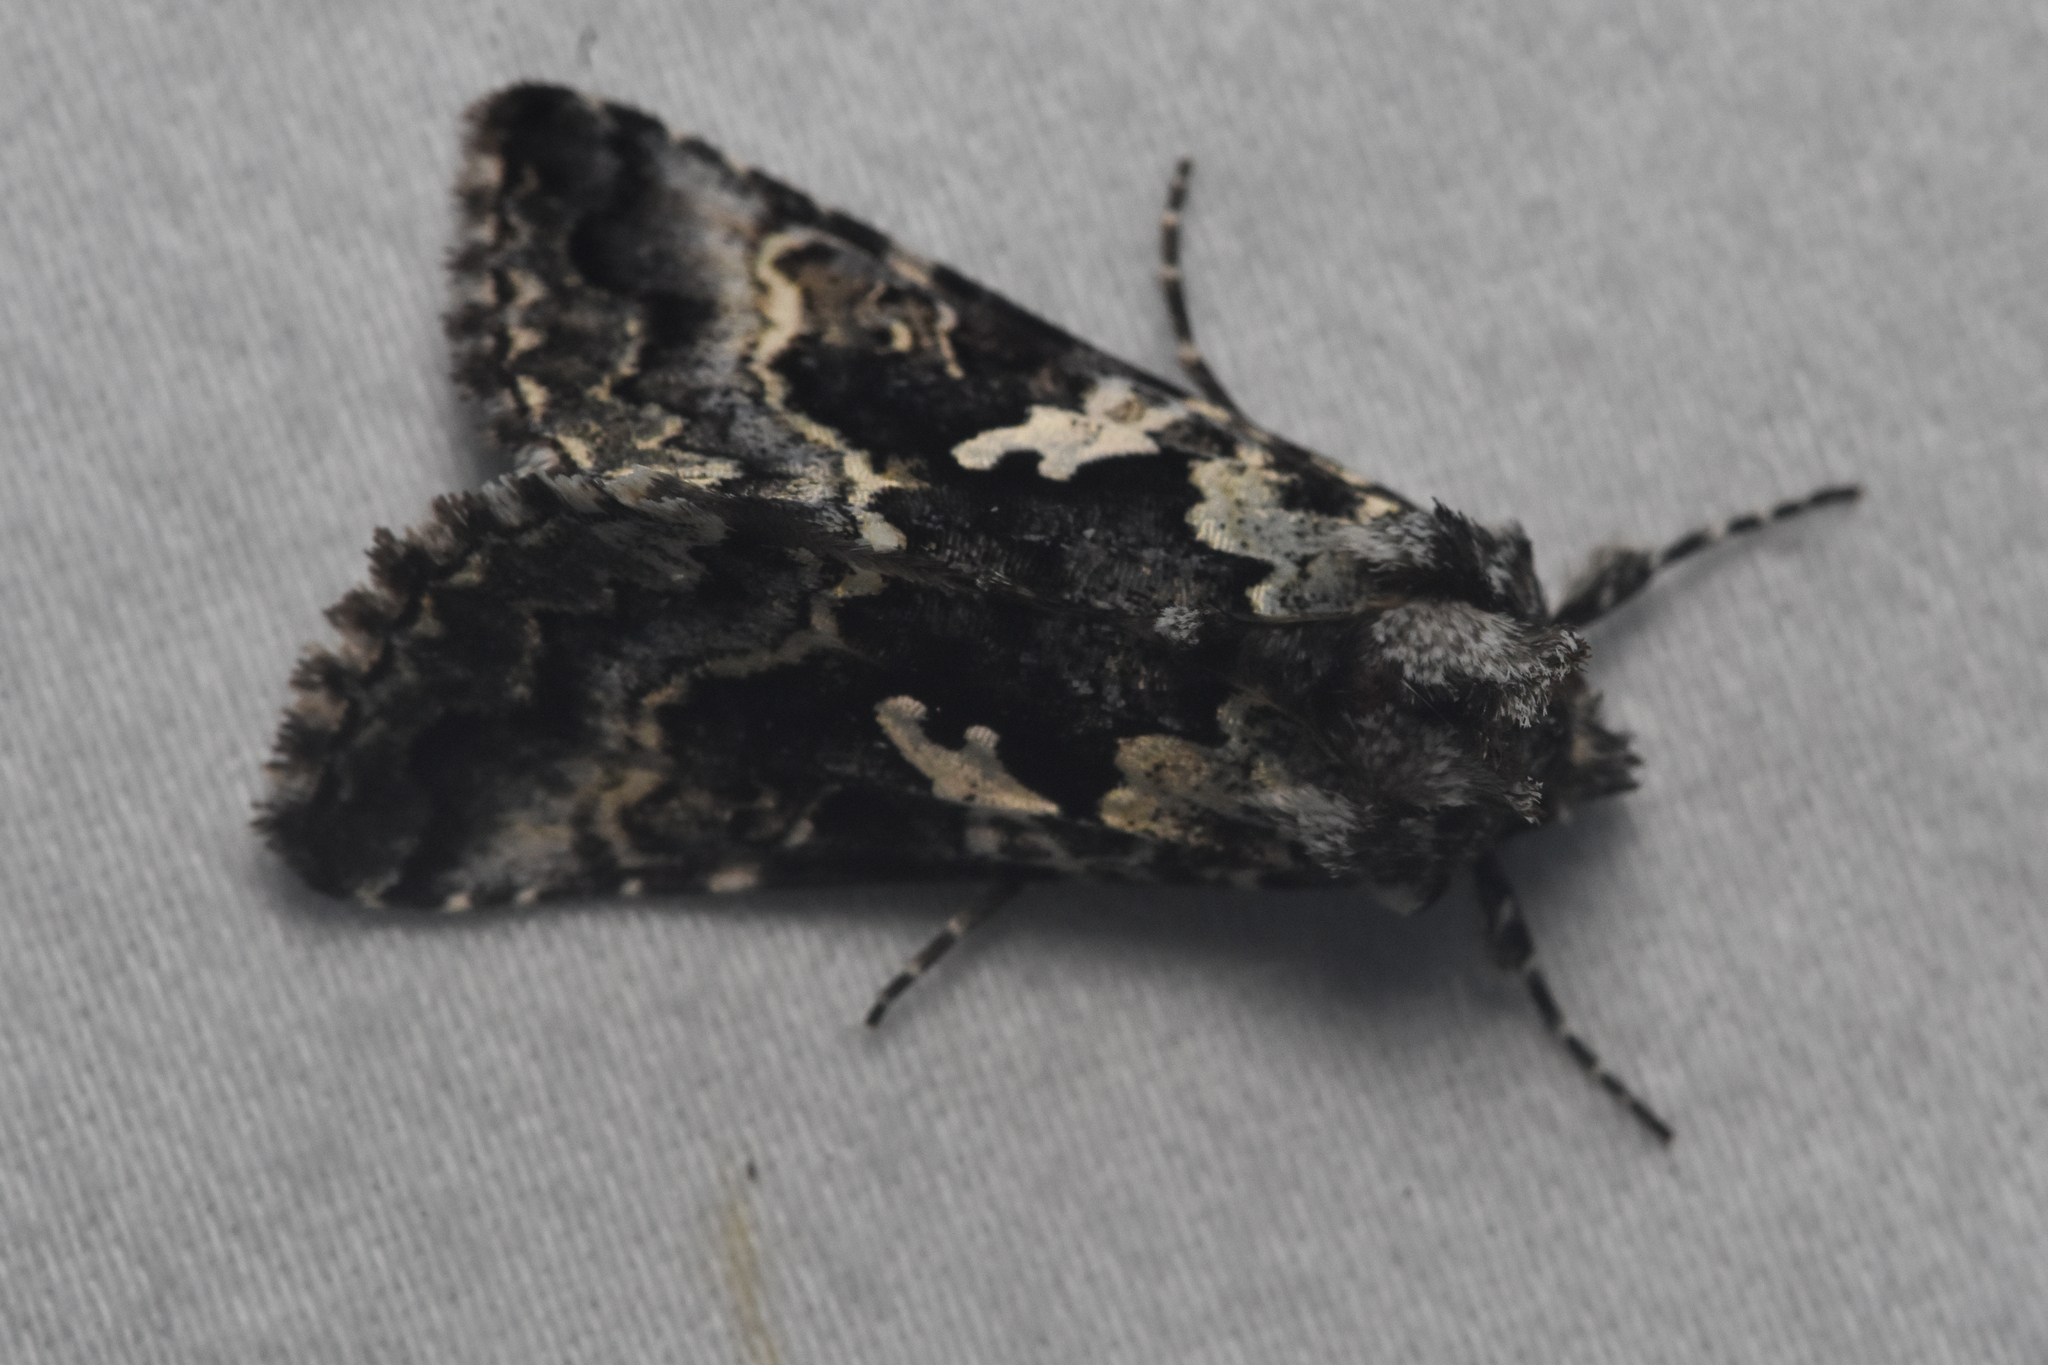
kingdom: Animalia
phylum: Arthropoda
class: Insecta
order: Lepidoptera
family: Noctuidae
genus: Syngrapha
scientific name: Syngrapha rectangula
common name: Angulated cutworm
